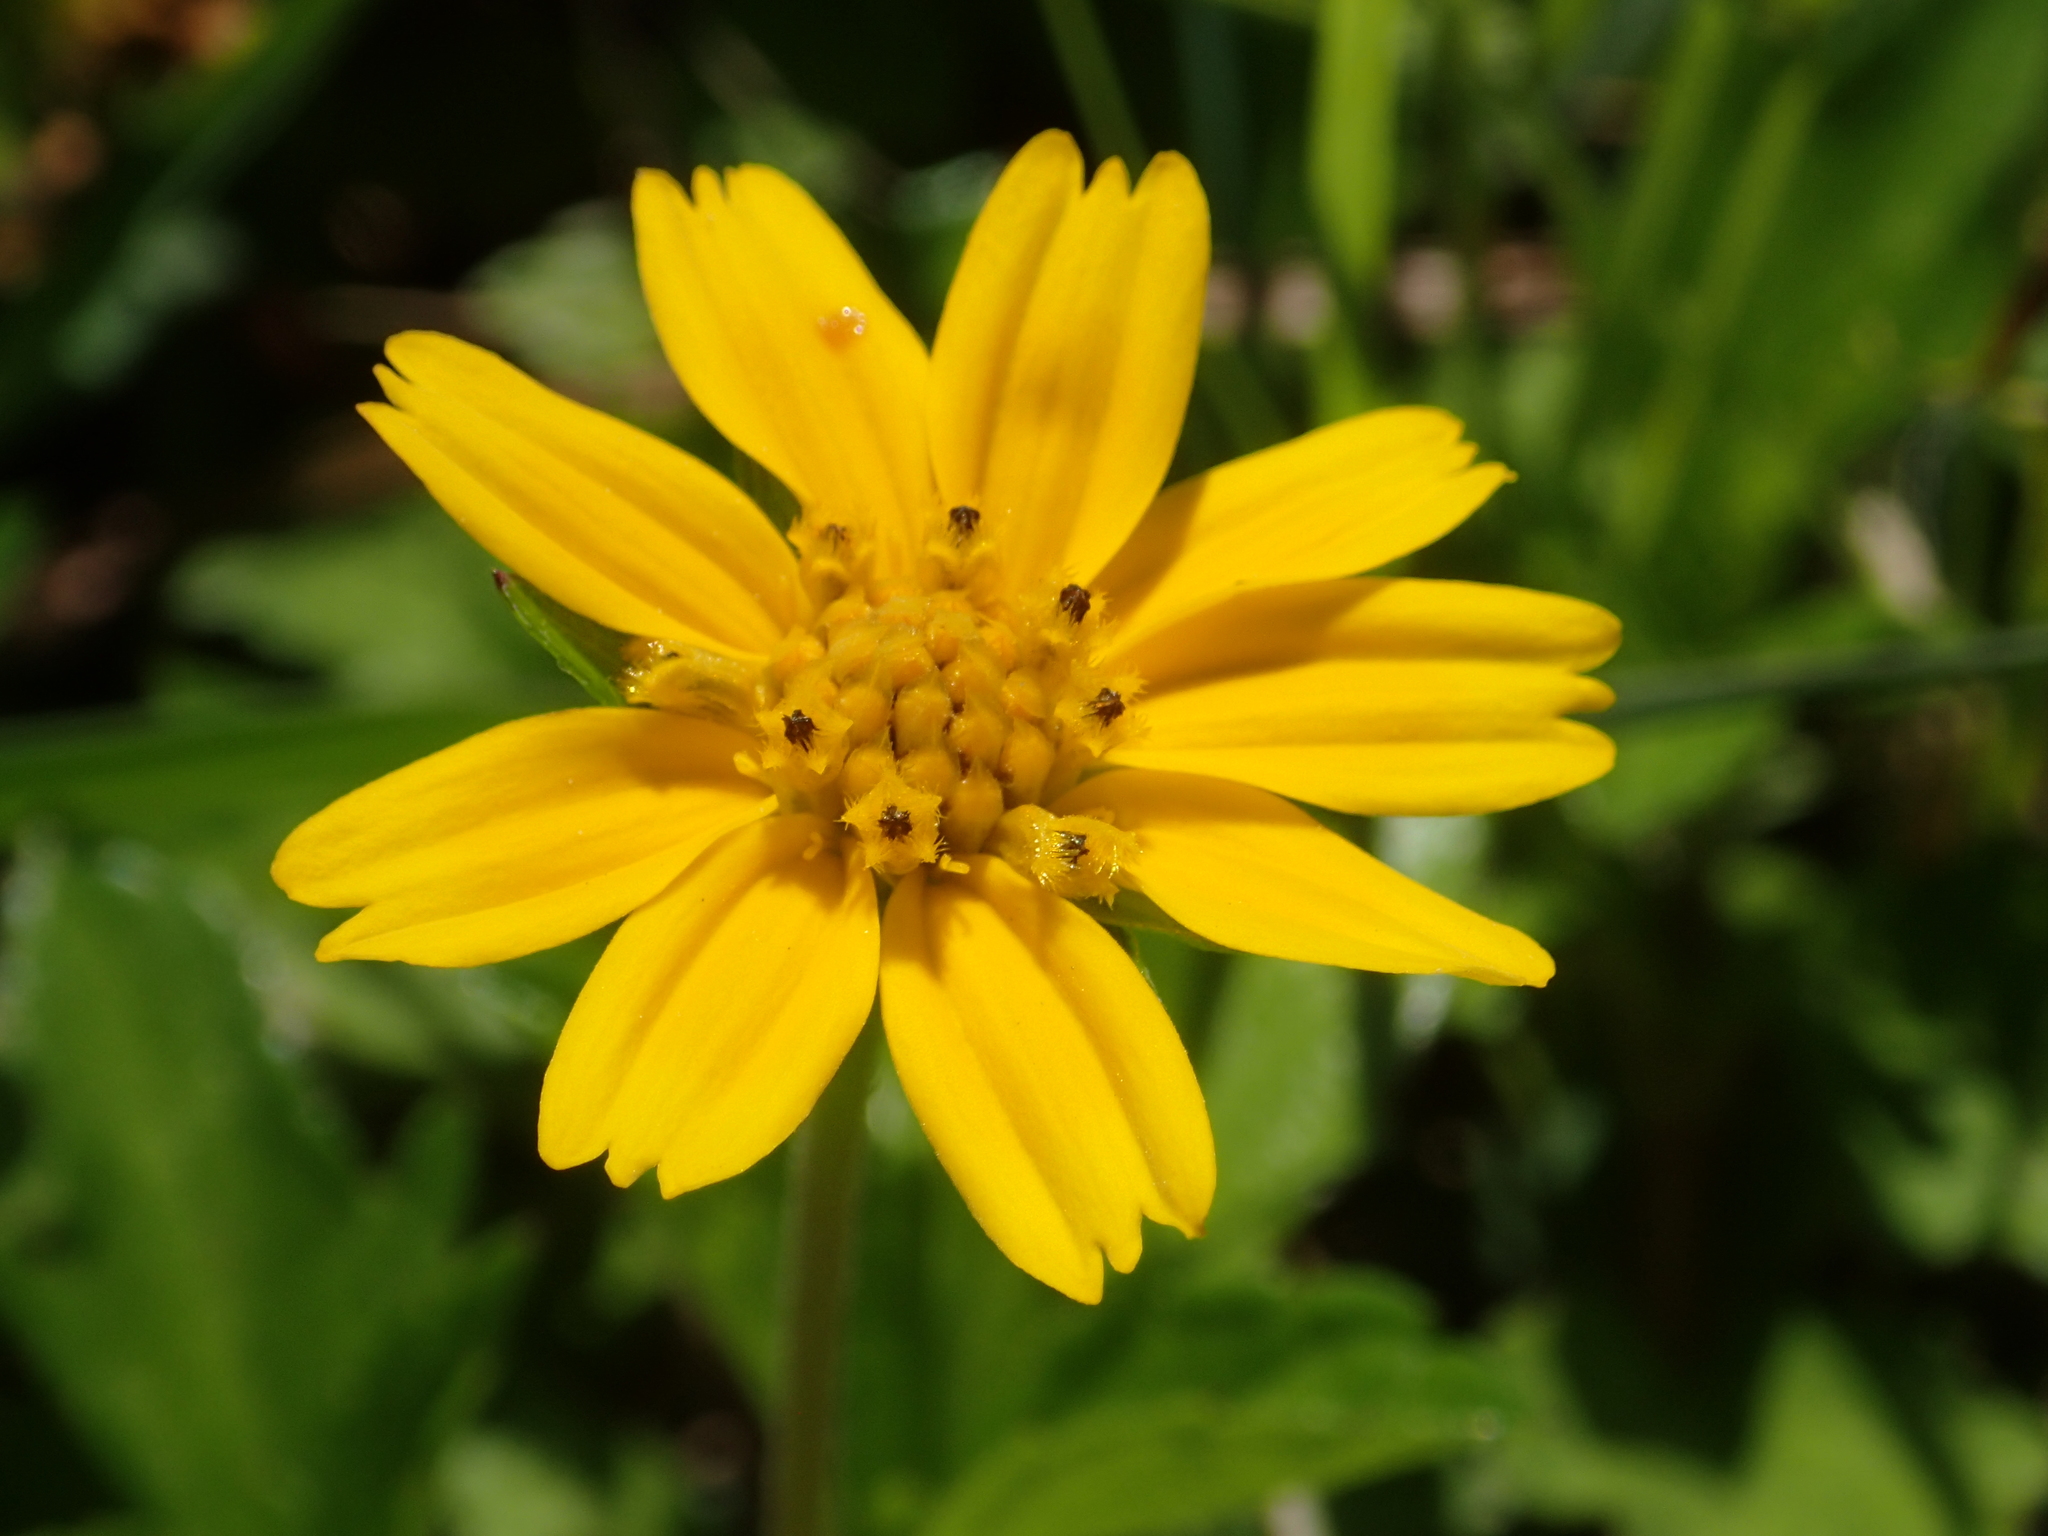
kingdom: Plantae
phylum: Tracheophyta
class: Magnoliopsida
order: Asterales
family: Asteraceae
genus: Sphagneticola
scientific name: Sphagneticola trilobata
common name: Bay biscayne creeping-oxeye
